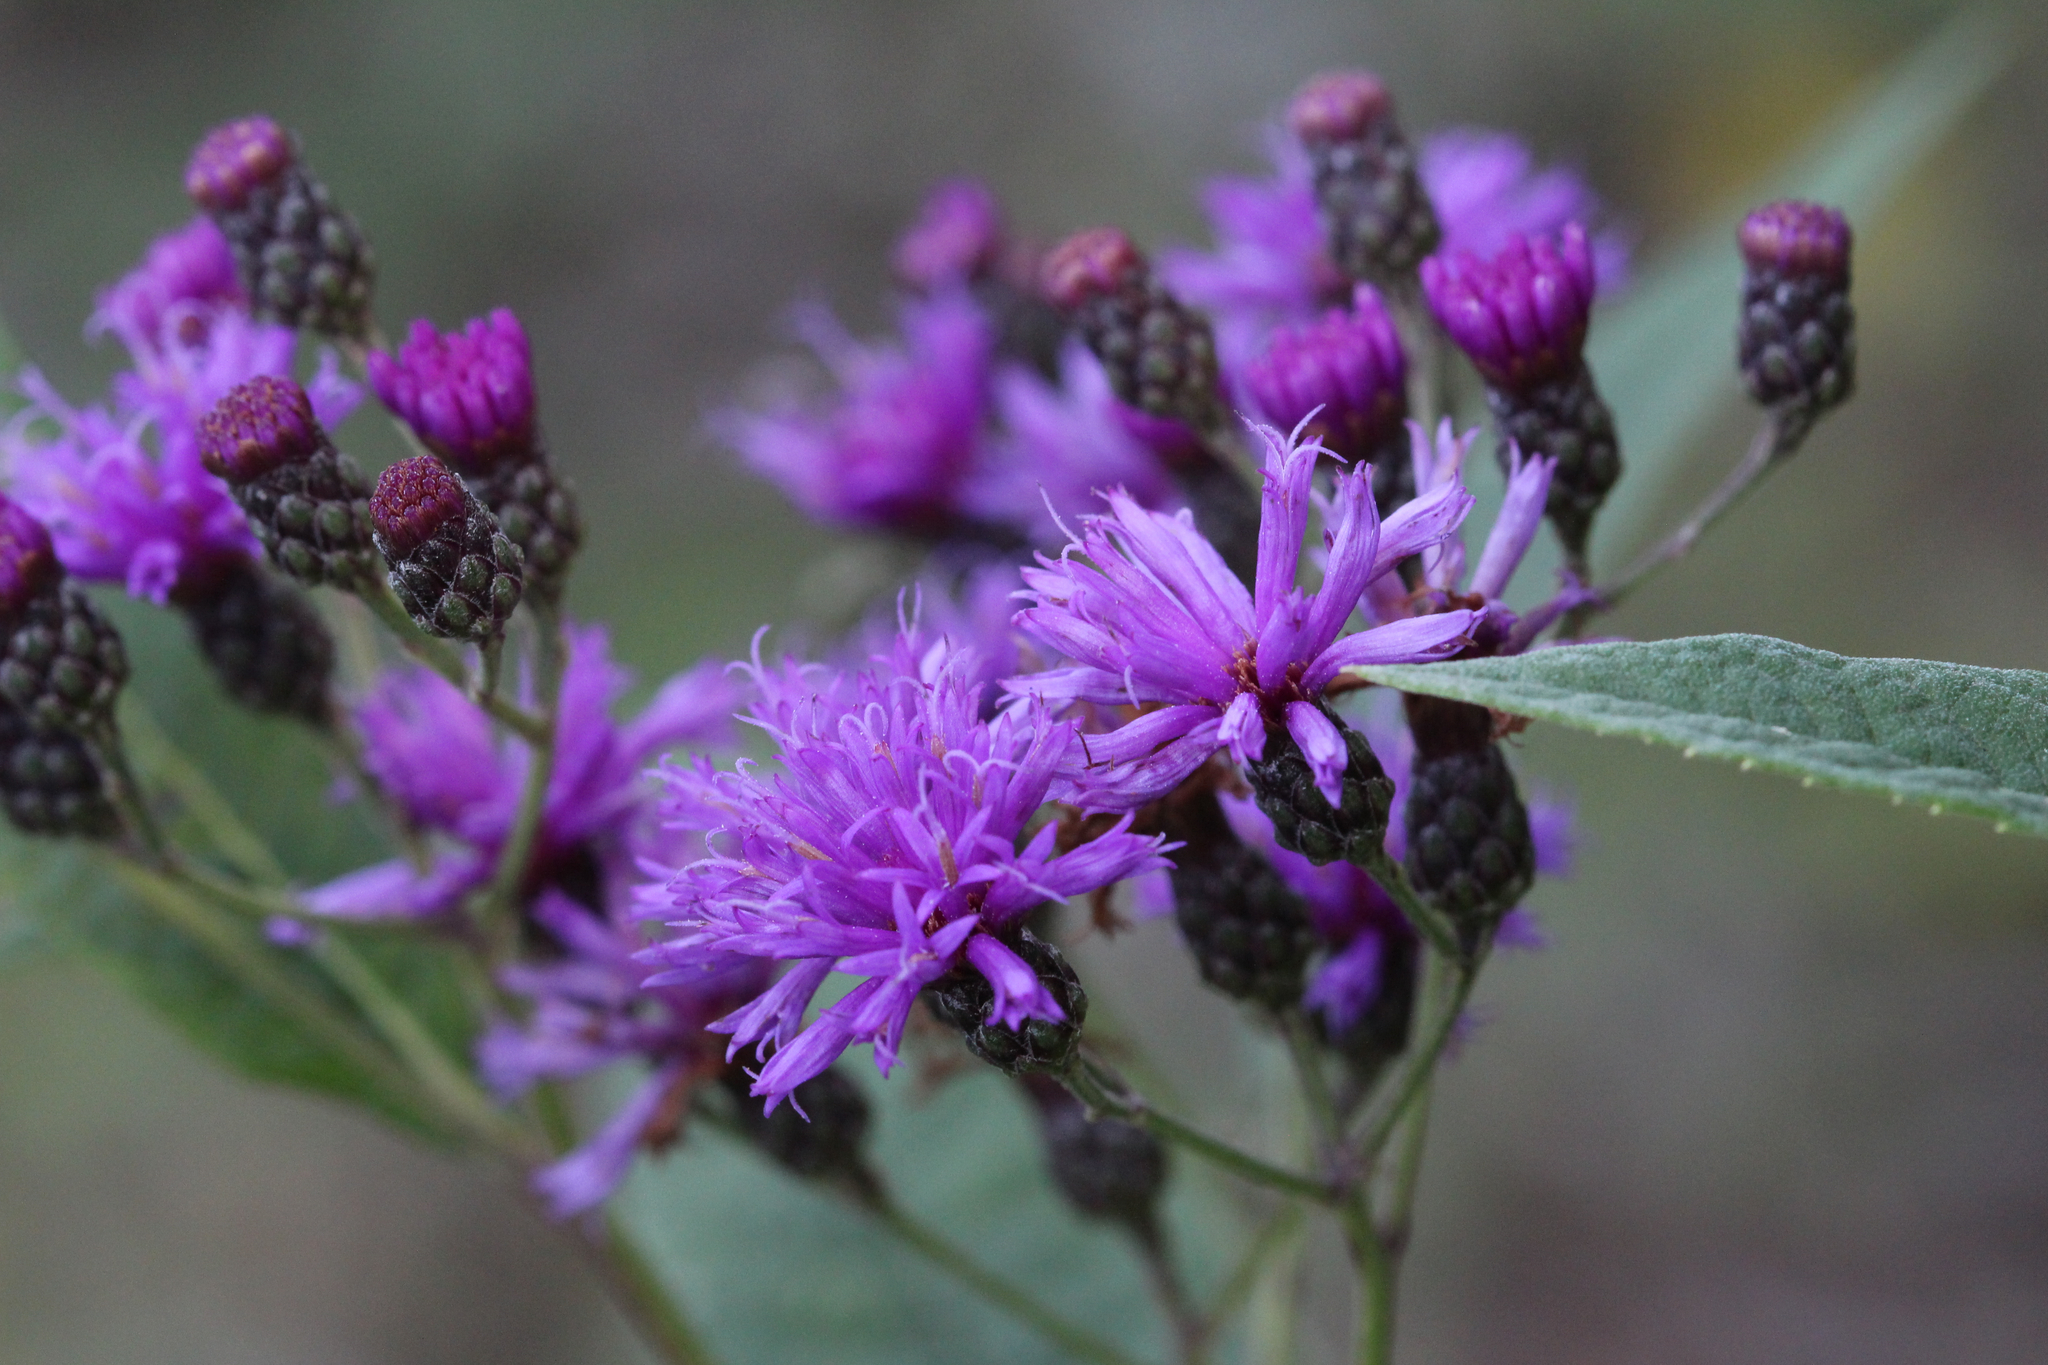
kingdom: Plantae
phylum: Tracheophyta
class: Magnoliopsida
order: Asterales
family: Asteraceae
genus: Vernonia
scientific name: Vernonia gigantea
